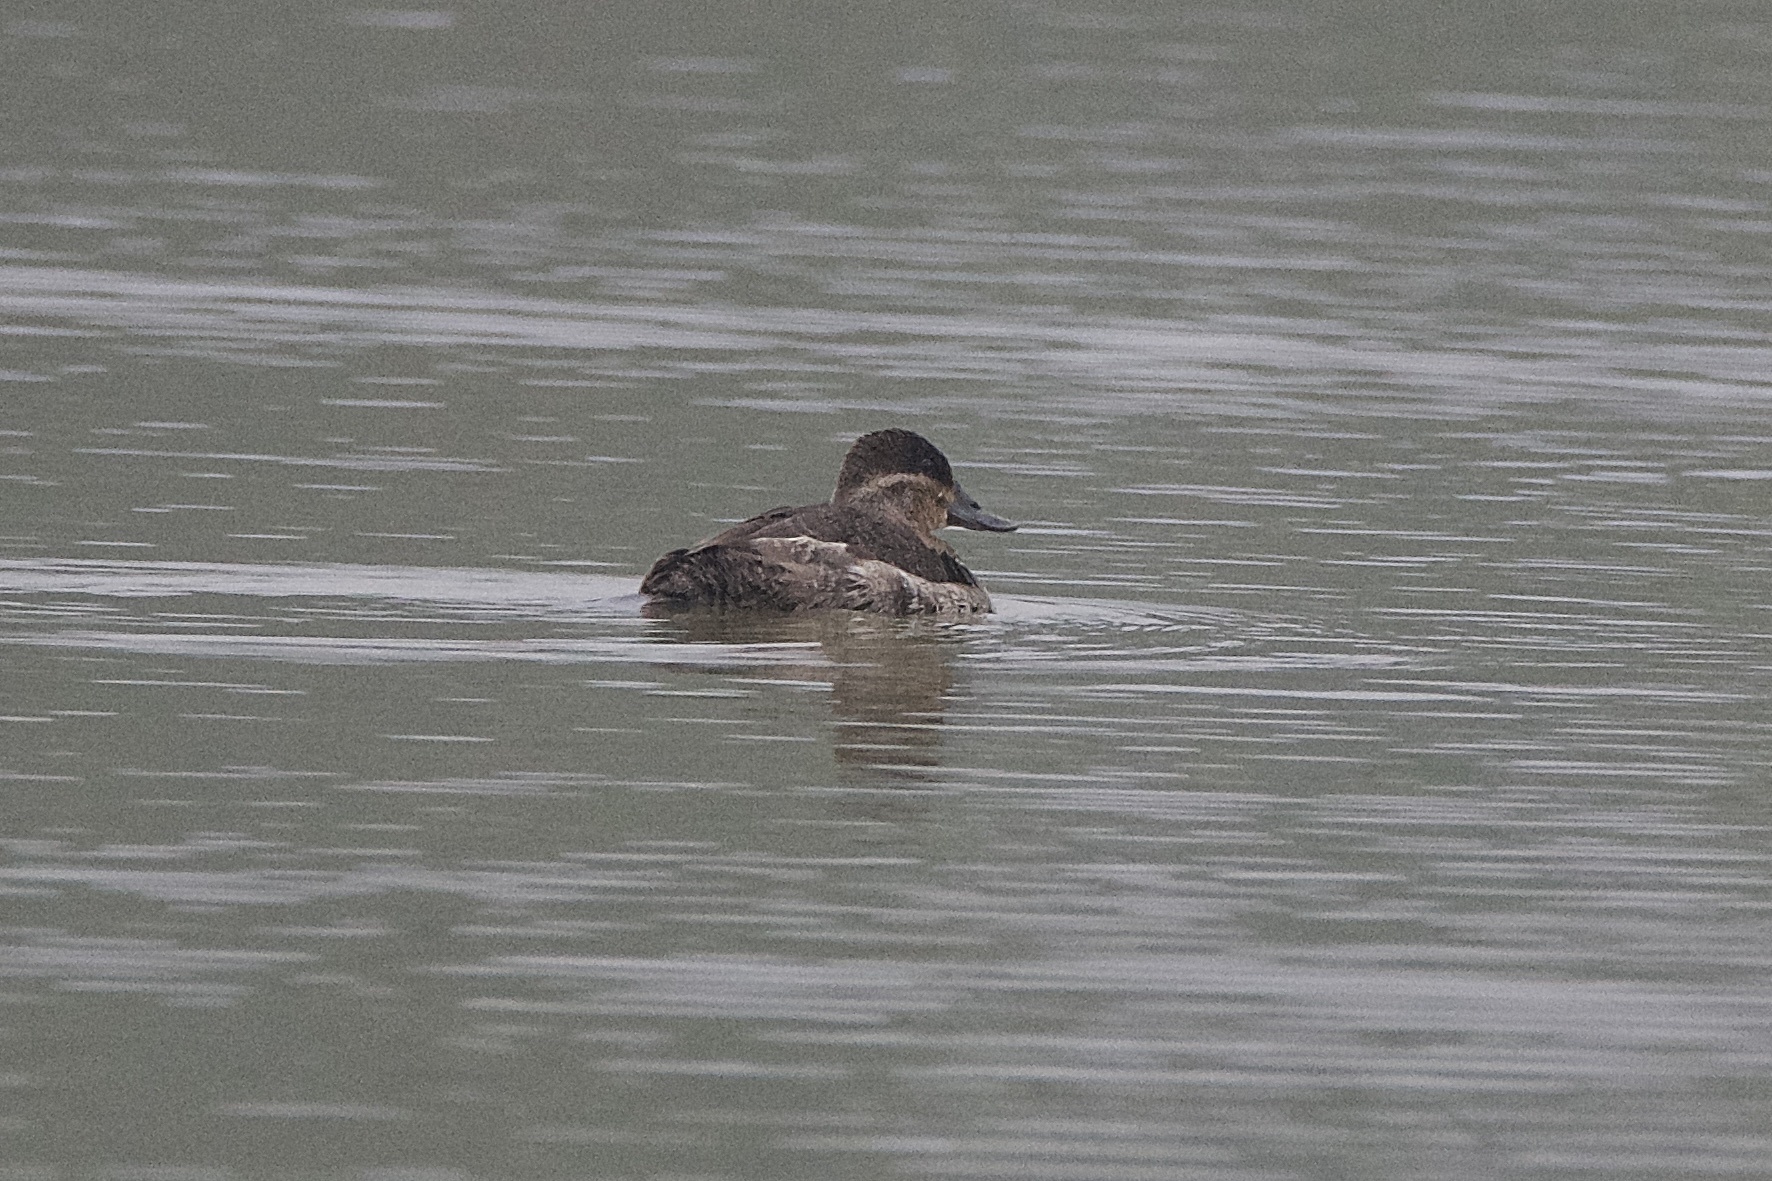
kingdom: Animalia
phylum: Chordata
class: Aves
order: Anseriformes
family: Anatidae
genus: Oxyura
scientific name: Oxyura jamaicensis
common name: Ruddy duck
